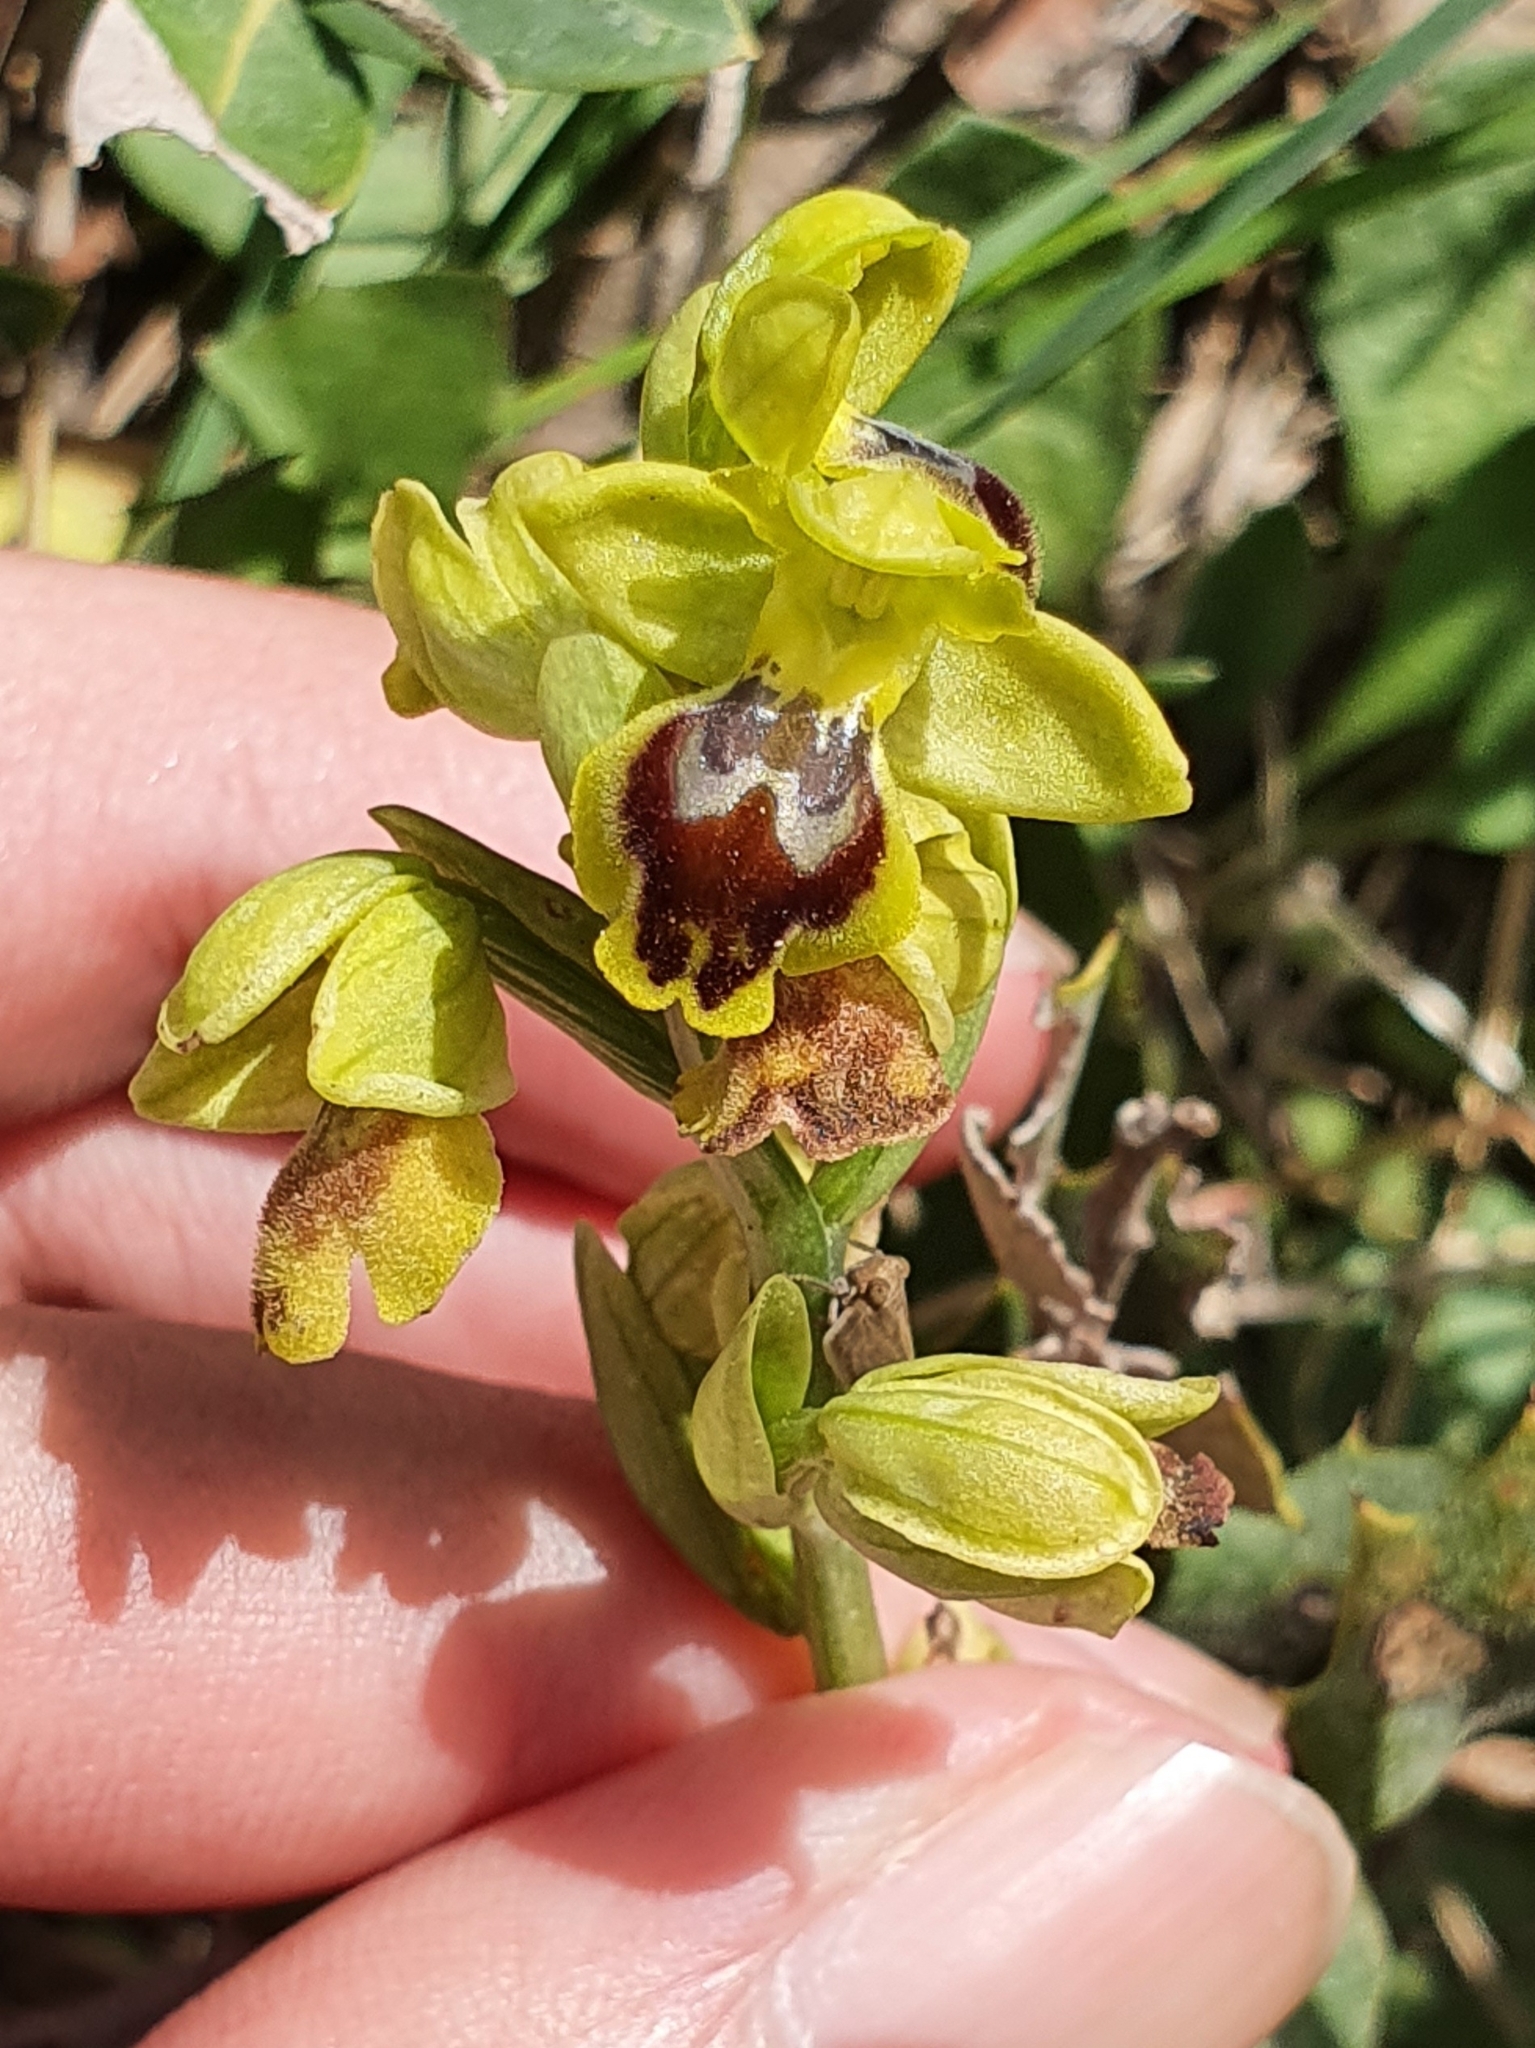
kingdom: Plantae
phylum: Tracheophyta
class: Liliopsida
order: Asparagales
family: Orchidaceae
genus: Ophrys
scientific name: Ophrys battandieri
